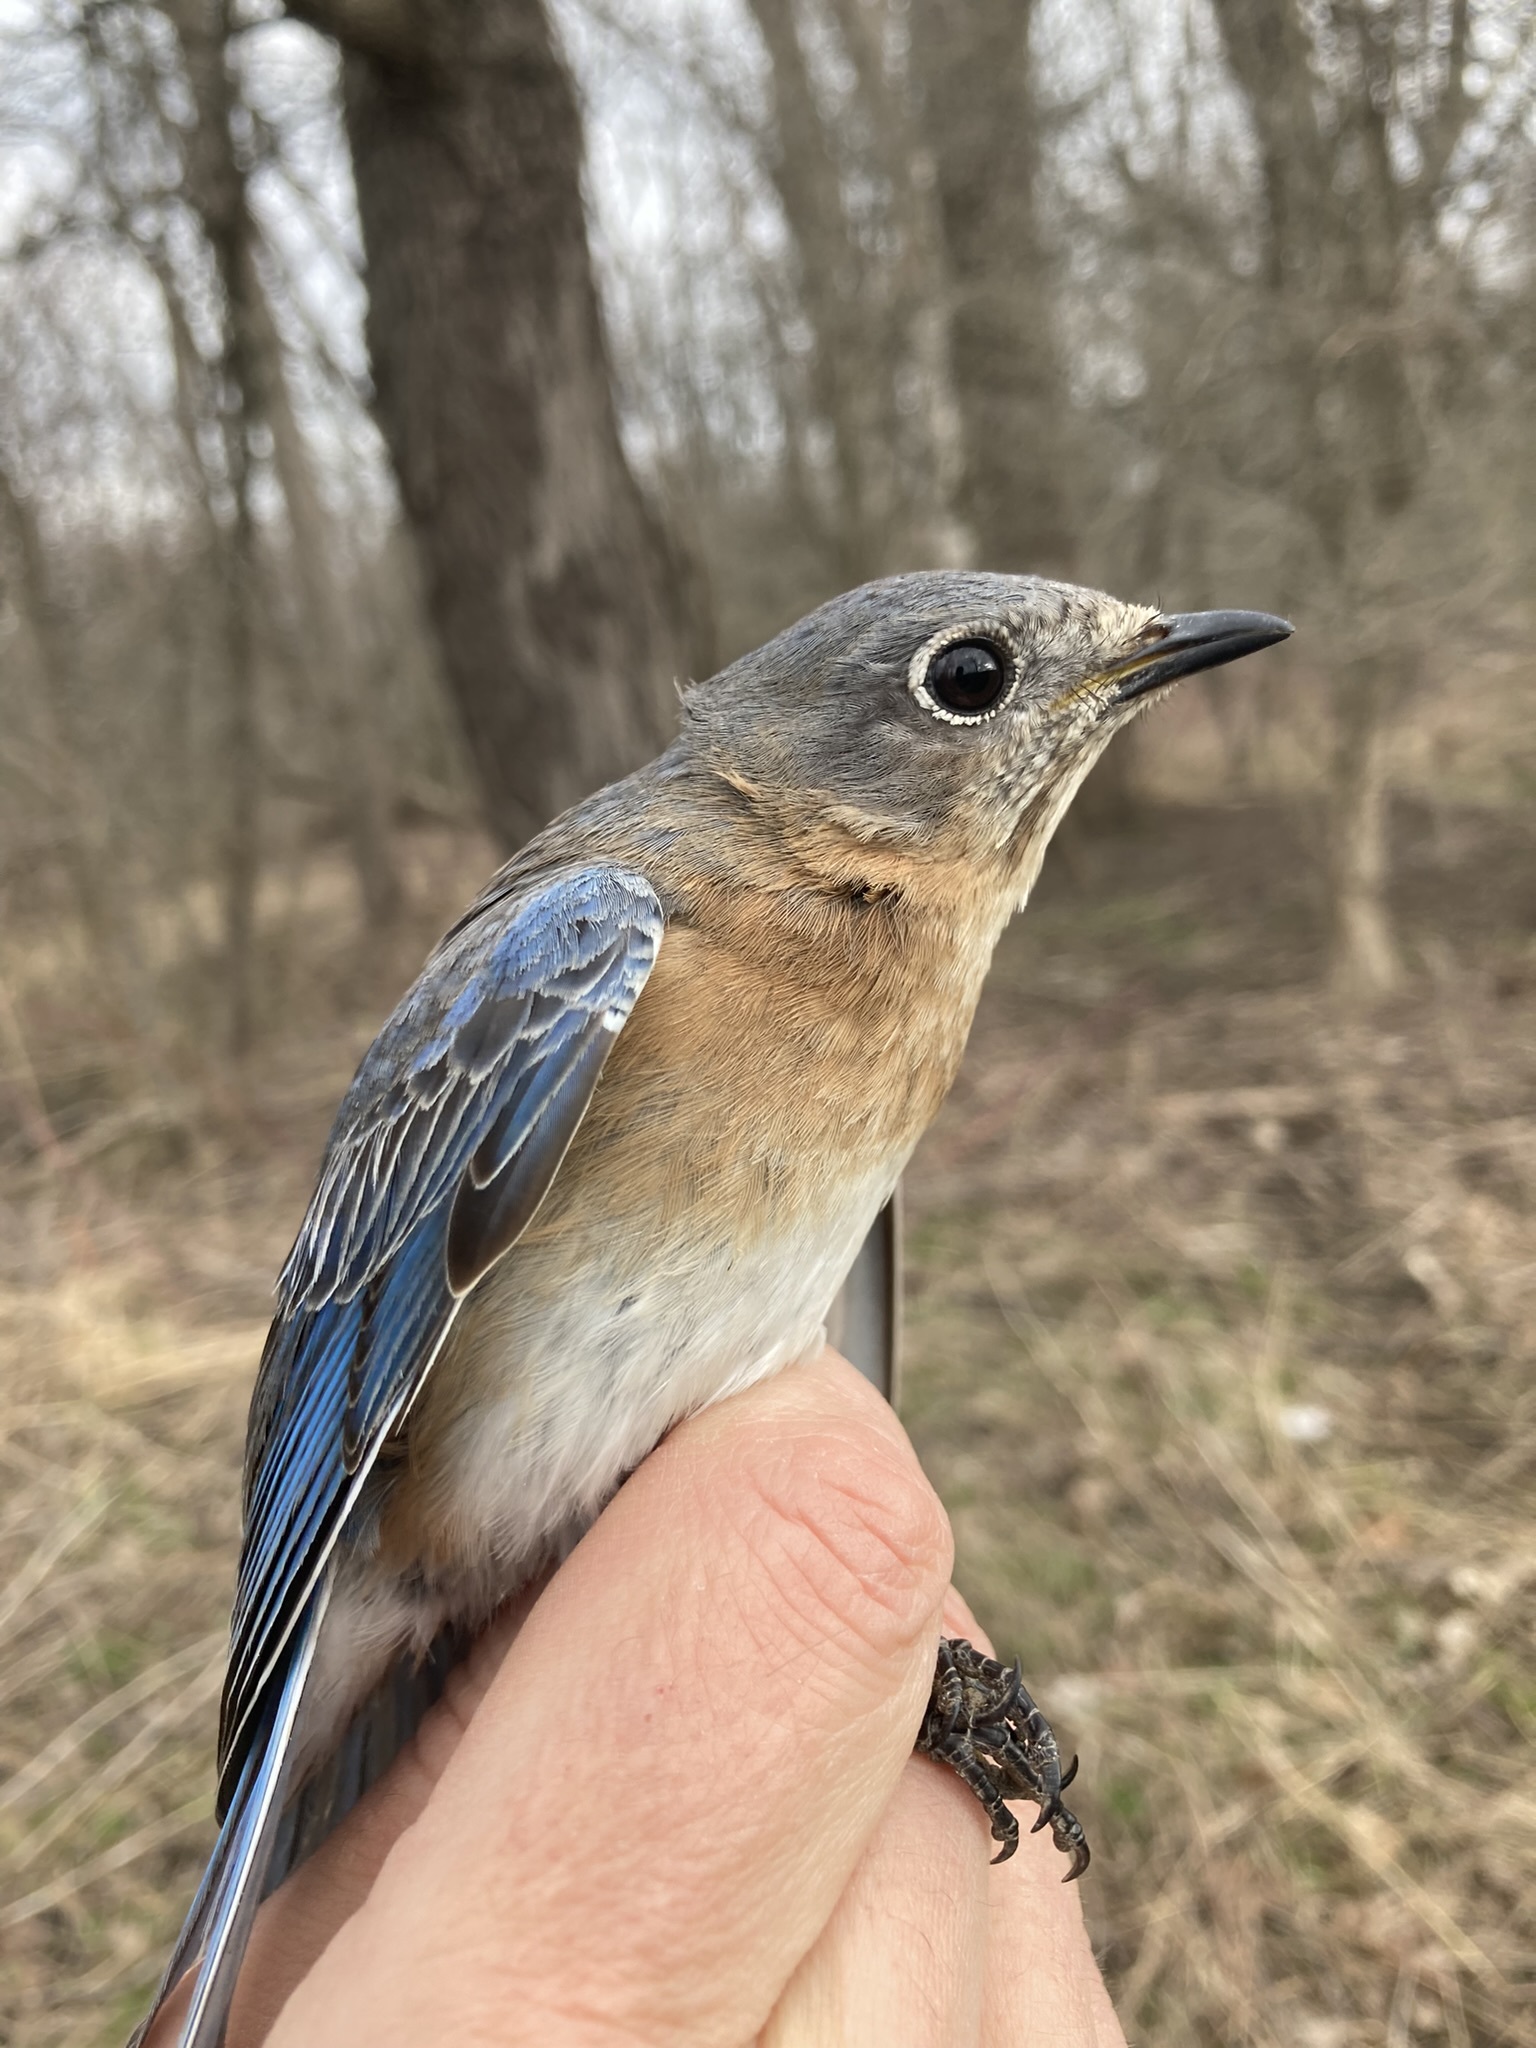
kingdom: Animalia
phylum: Chordata
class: Aves
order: Passeriformes
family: Turdidae
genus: Sialia
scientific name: Sialia sialis
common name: Eastern bluebird
